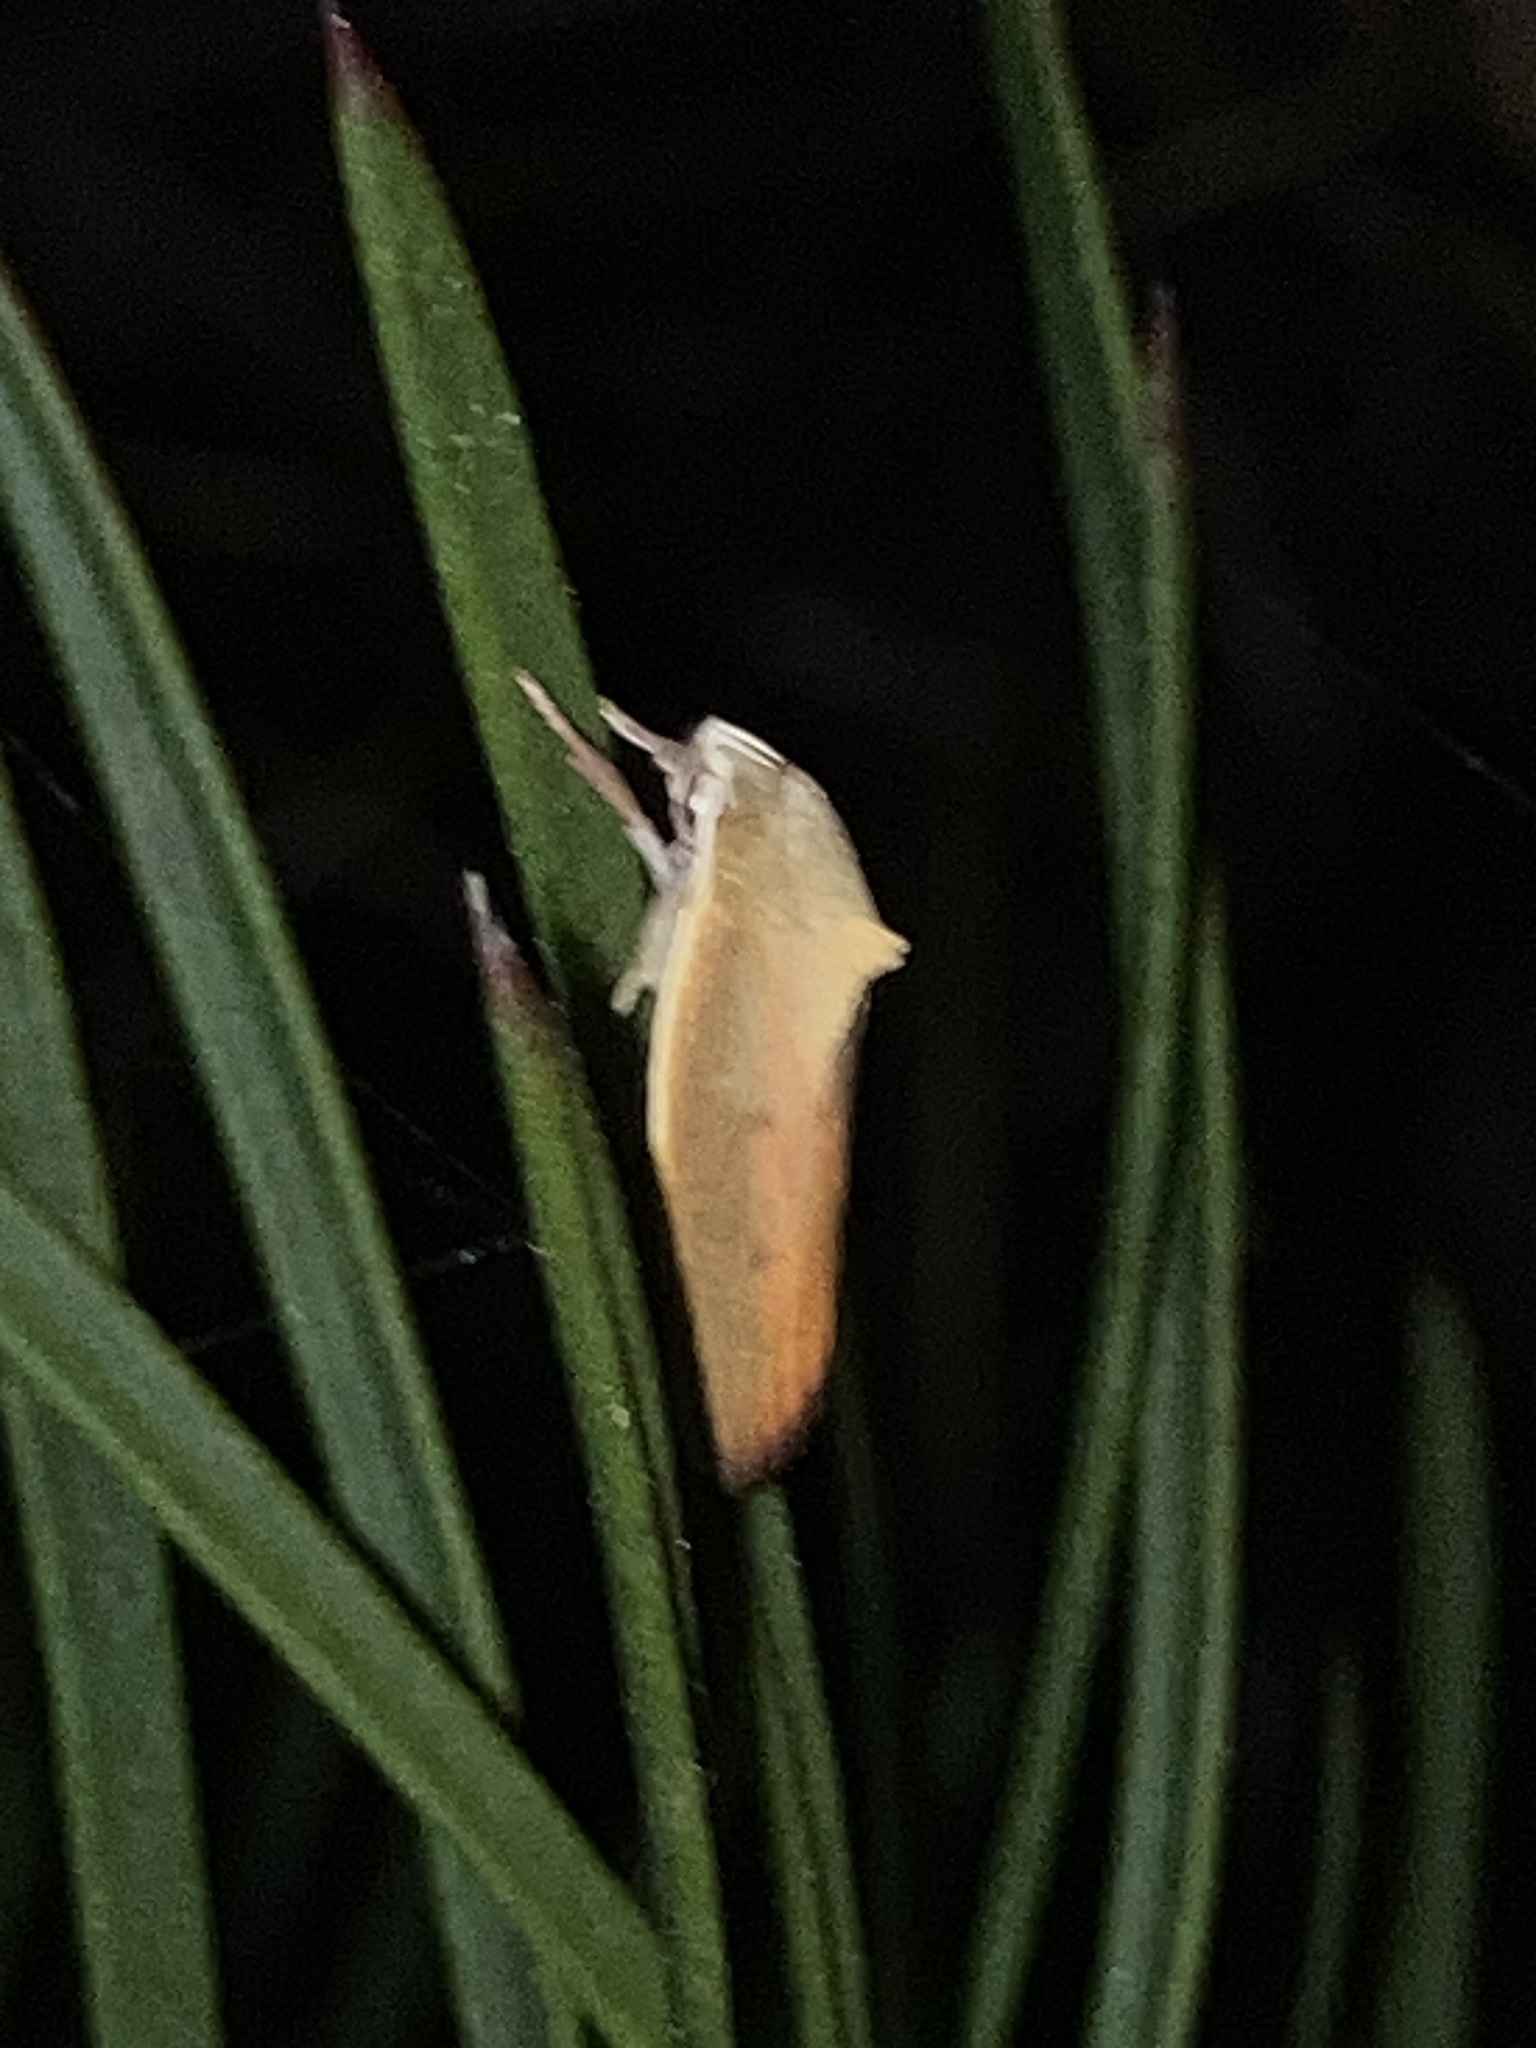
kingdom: Animalia
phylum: Arthropoda
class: Insecta
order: Lepidoptera
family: Oecophoridae
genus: Ptyoptila
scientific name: Ptyoptila matutinella
